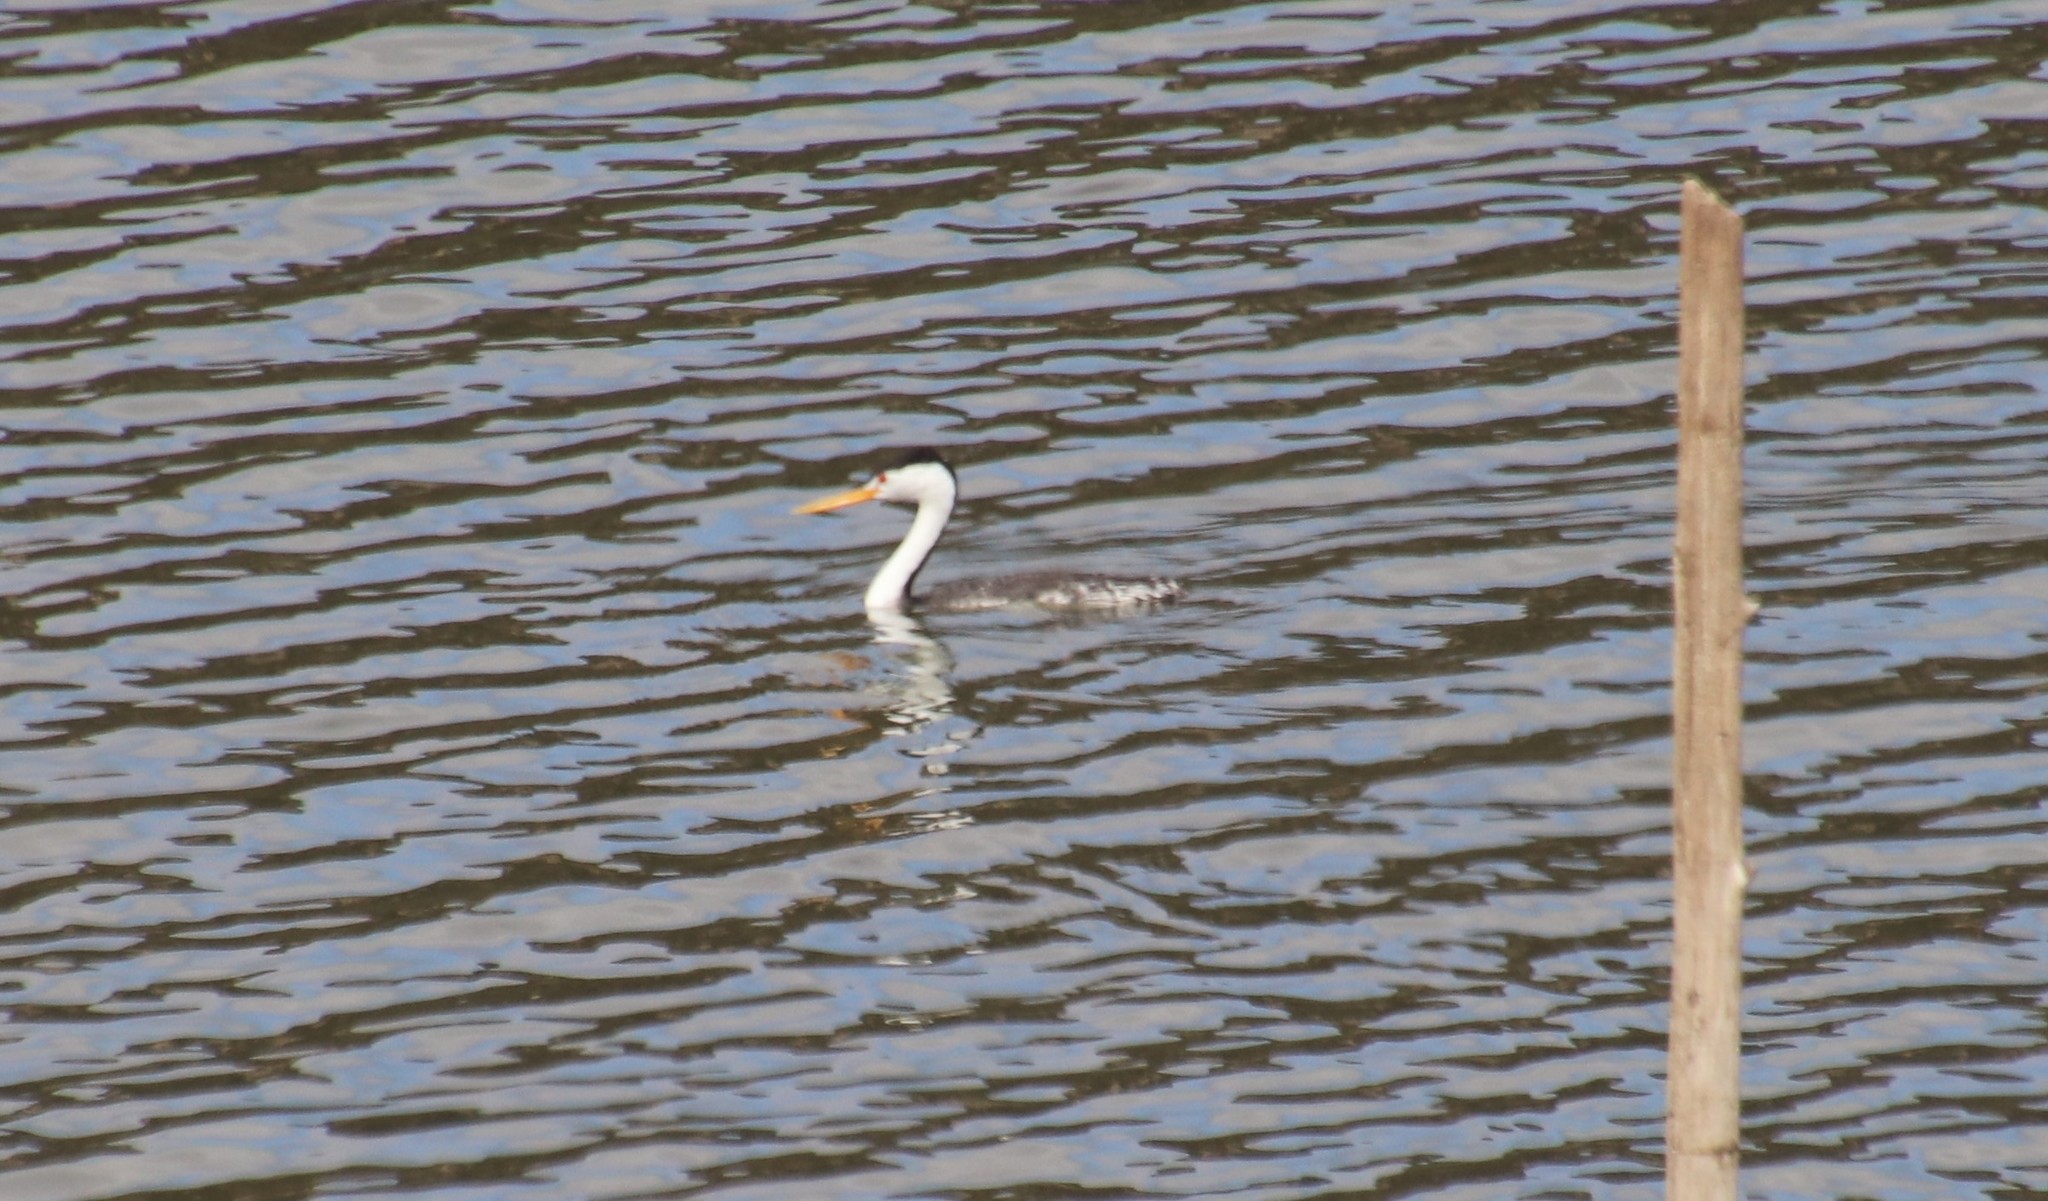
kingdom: Animalia
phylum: Chordata
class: Aves
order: Podicipediformes
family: Podicipedidae
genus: Aechmophorus
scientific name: Aechmophorus clarkii
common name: Clark's grebe
